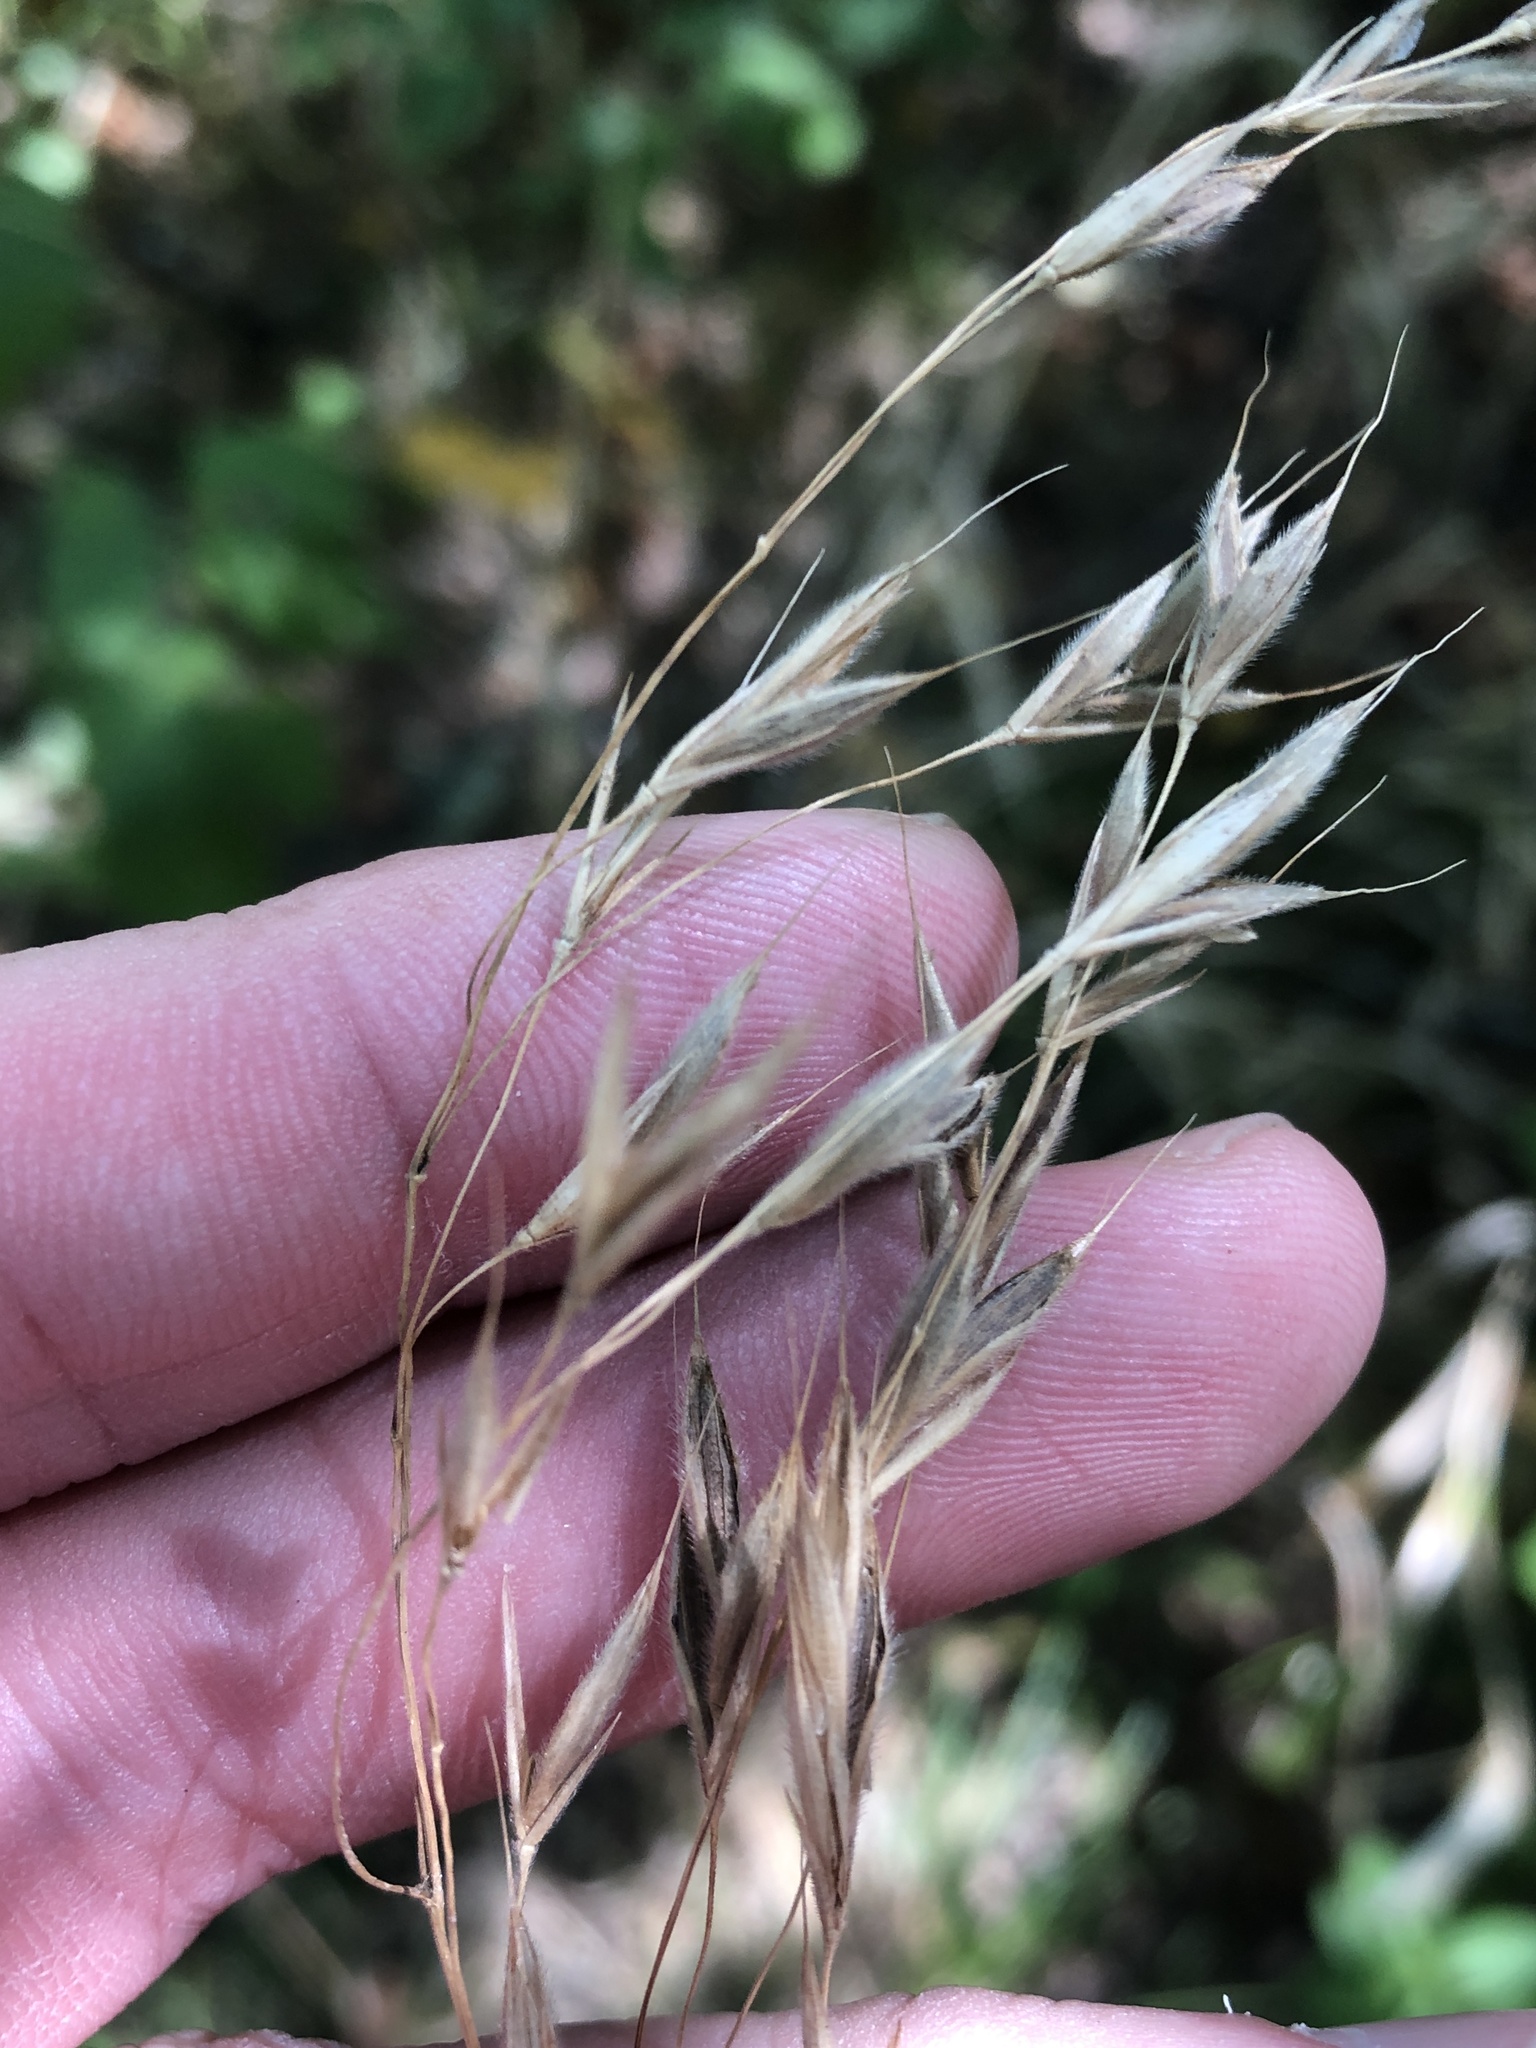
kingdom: Plantae
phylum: Tracheophyta
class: Liliopsida
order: Poales
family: Poaceae
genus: Bromus
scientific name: Bromus pubescens
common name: Hairy wood brome grass
